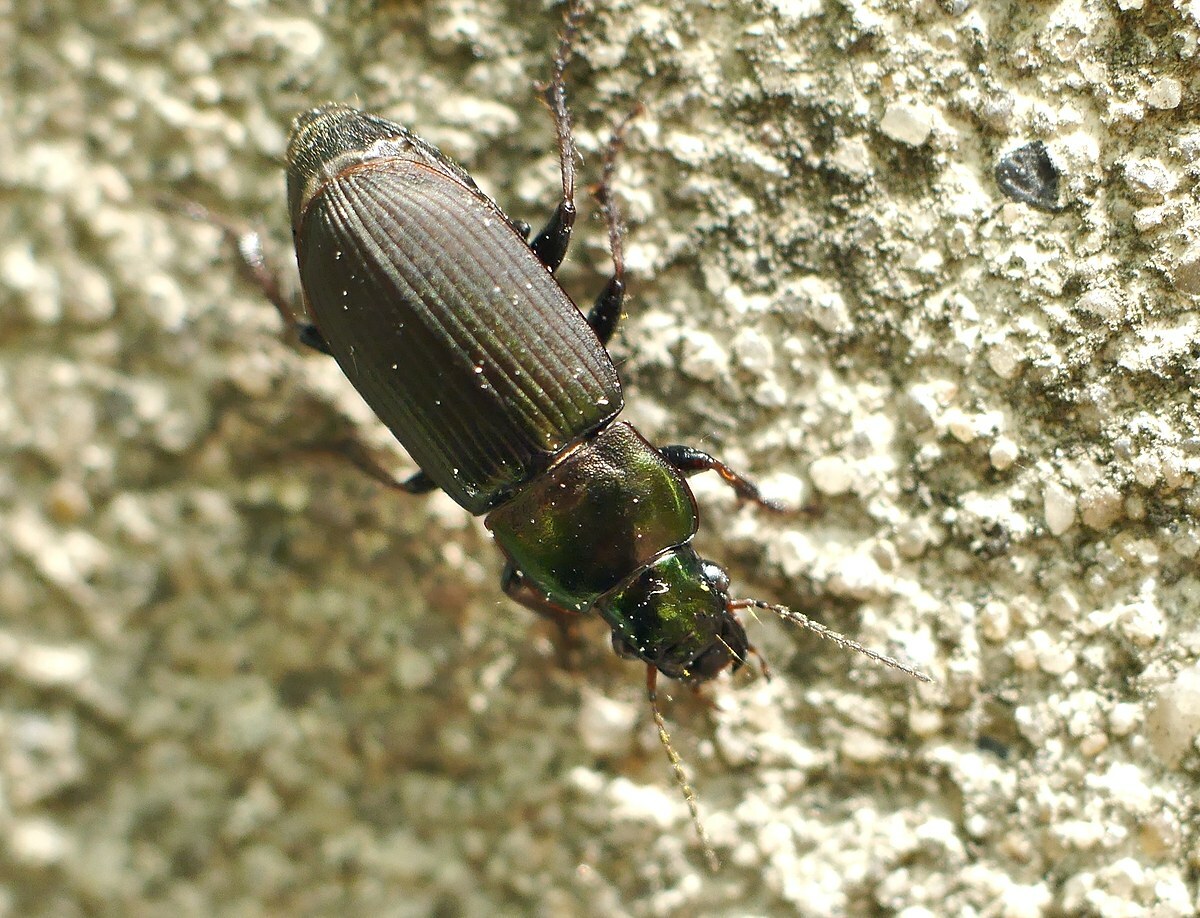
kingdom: Animalia
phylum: Arthropoda
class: Insecta
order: Coleoptera
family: Carabidae
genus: Harpalus
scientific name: Harpalus distinguendus
